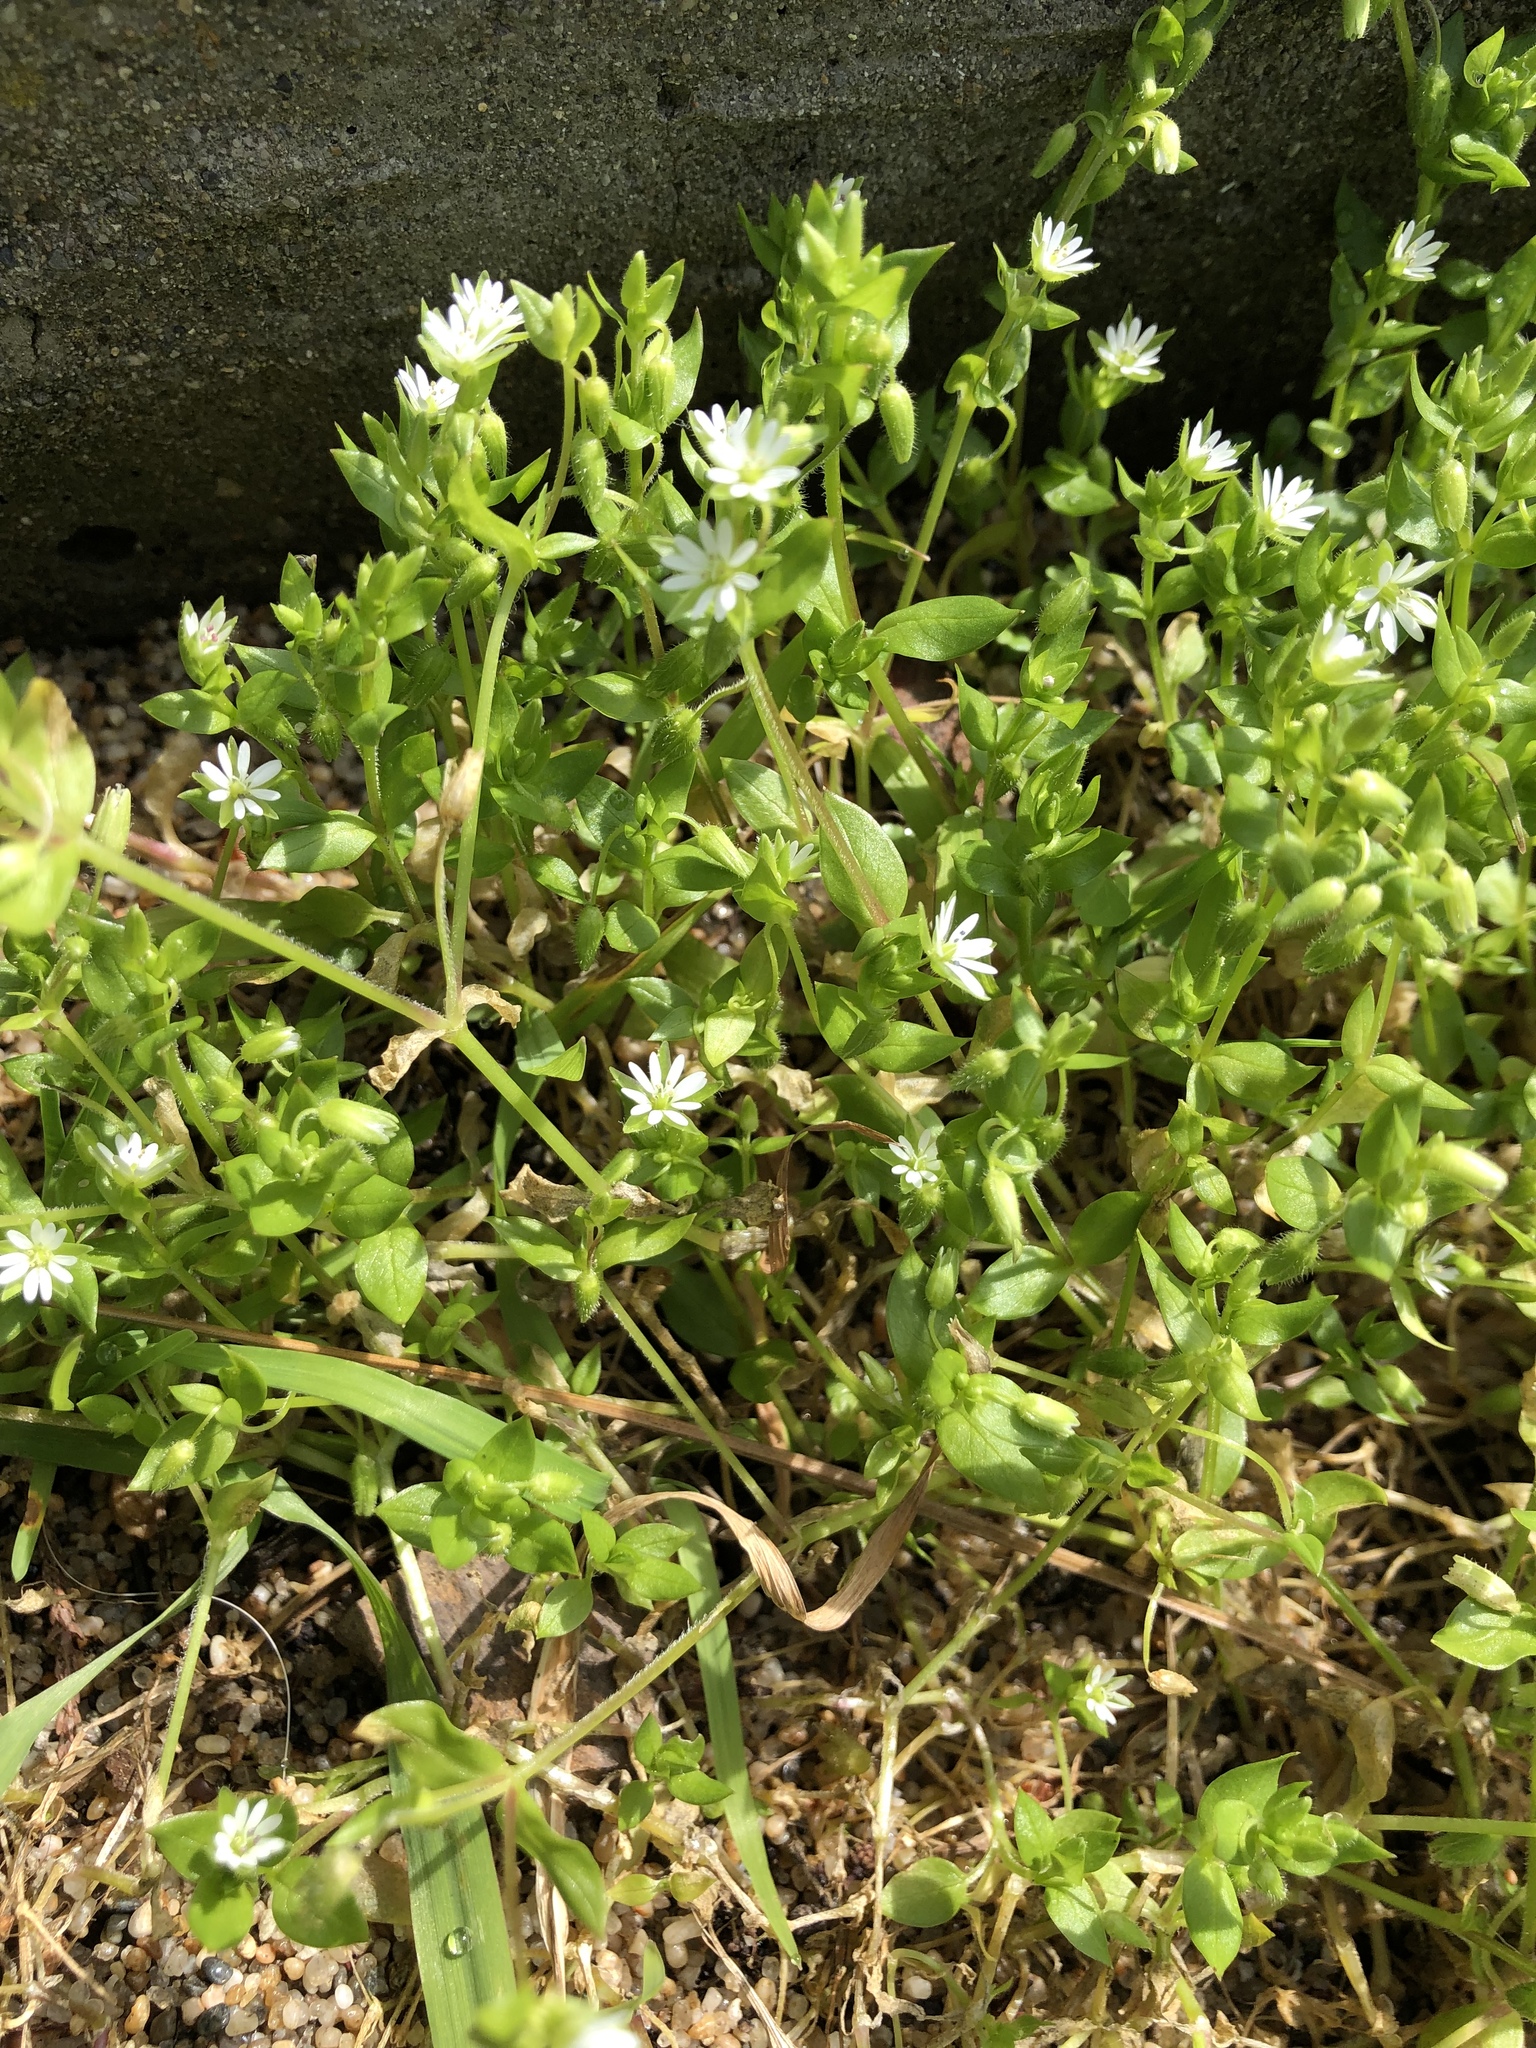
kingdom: Plantae
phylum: Tracheophyta
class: Magnoliopsida
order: Caryophyllales
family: Caryophyllaceae
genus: Stellaria
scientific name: Stellaria media
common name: Common chickweed
